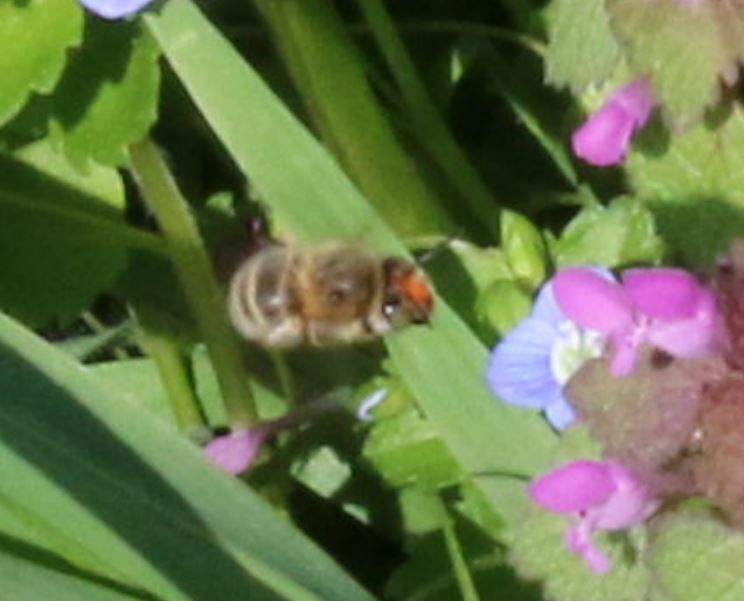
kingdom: Animalia
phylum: Arthropoda
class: Insecta
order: Hymenoptera
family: Apidae
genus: Anthophora
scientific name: Anthophora crinipes
